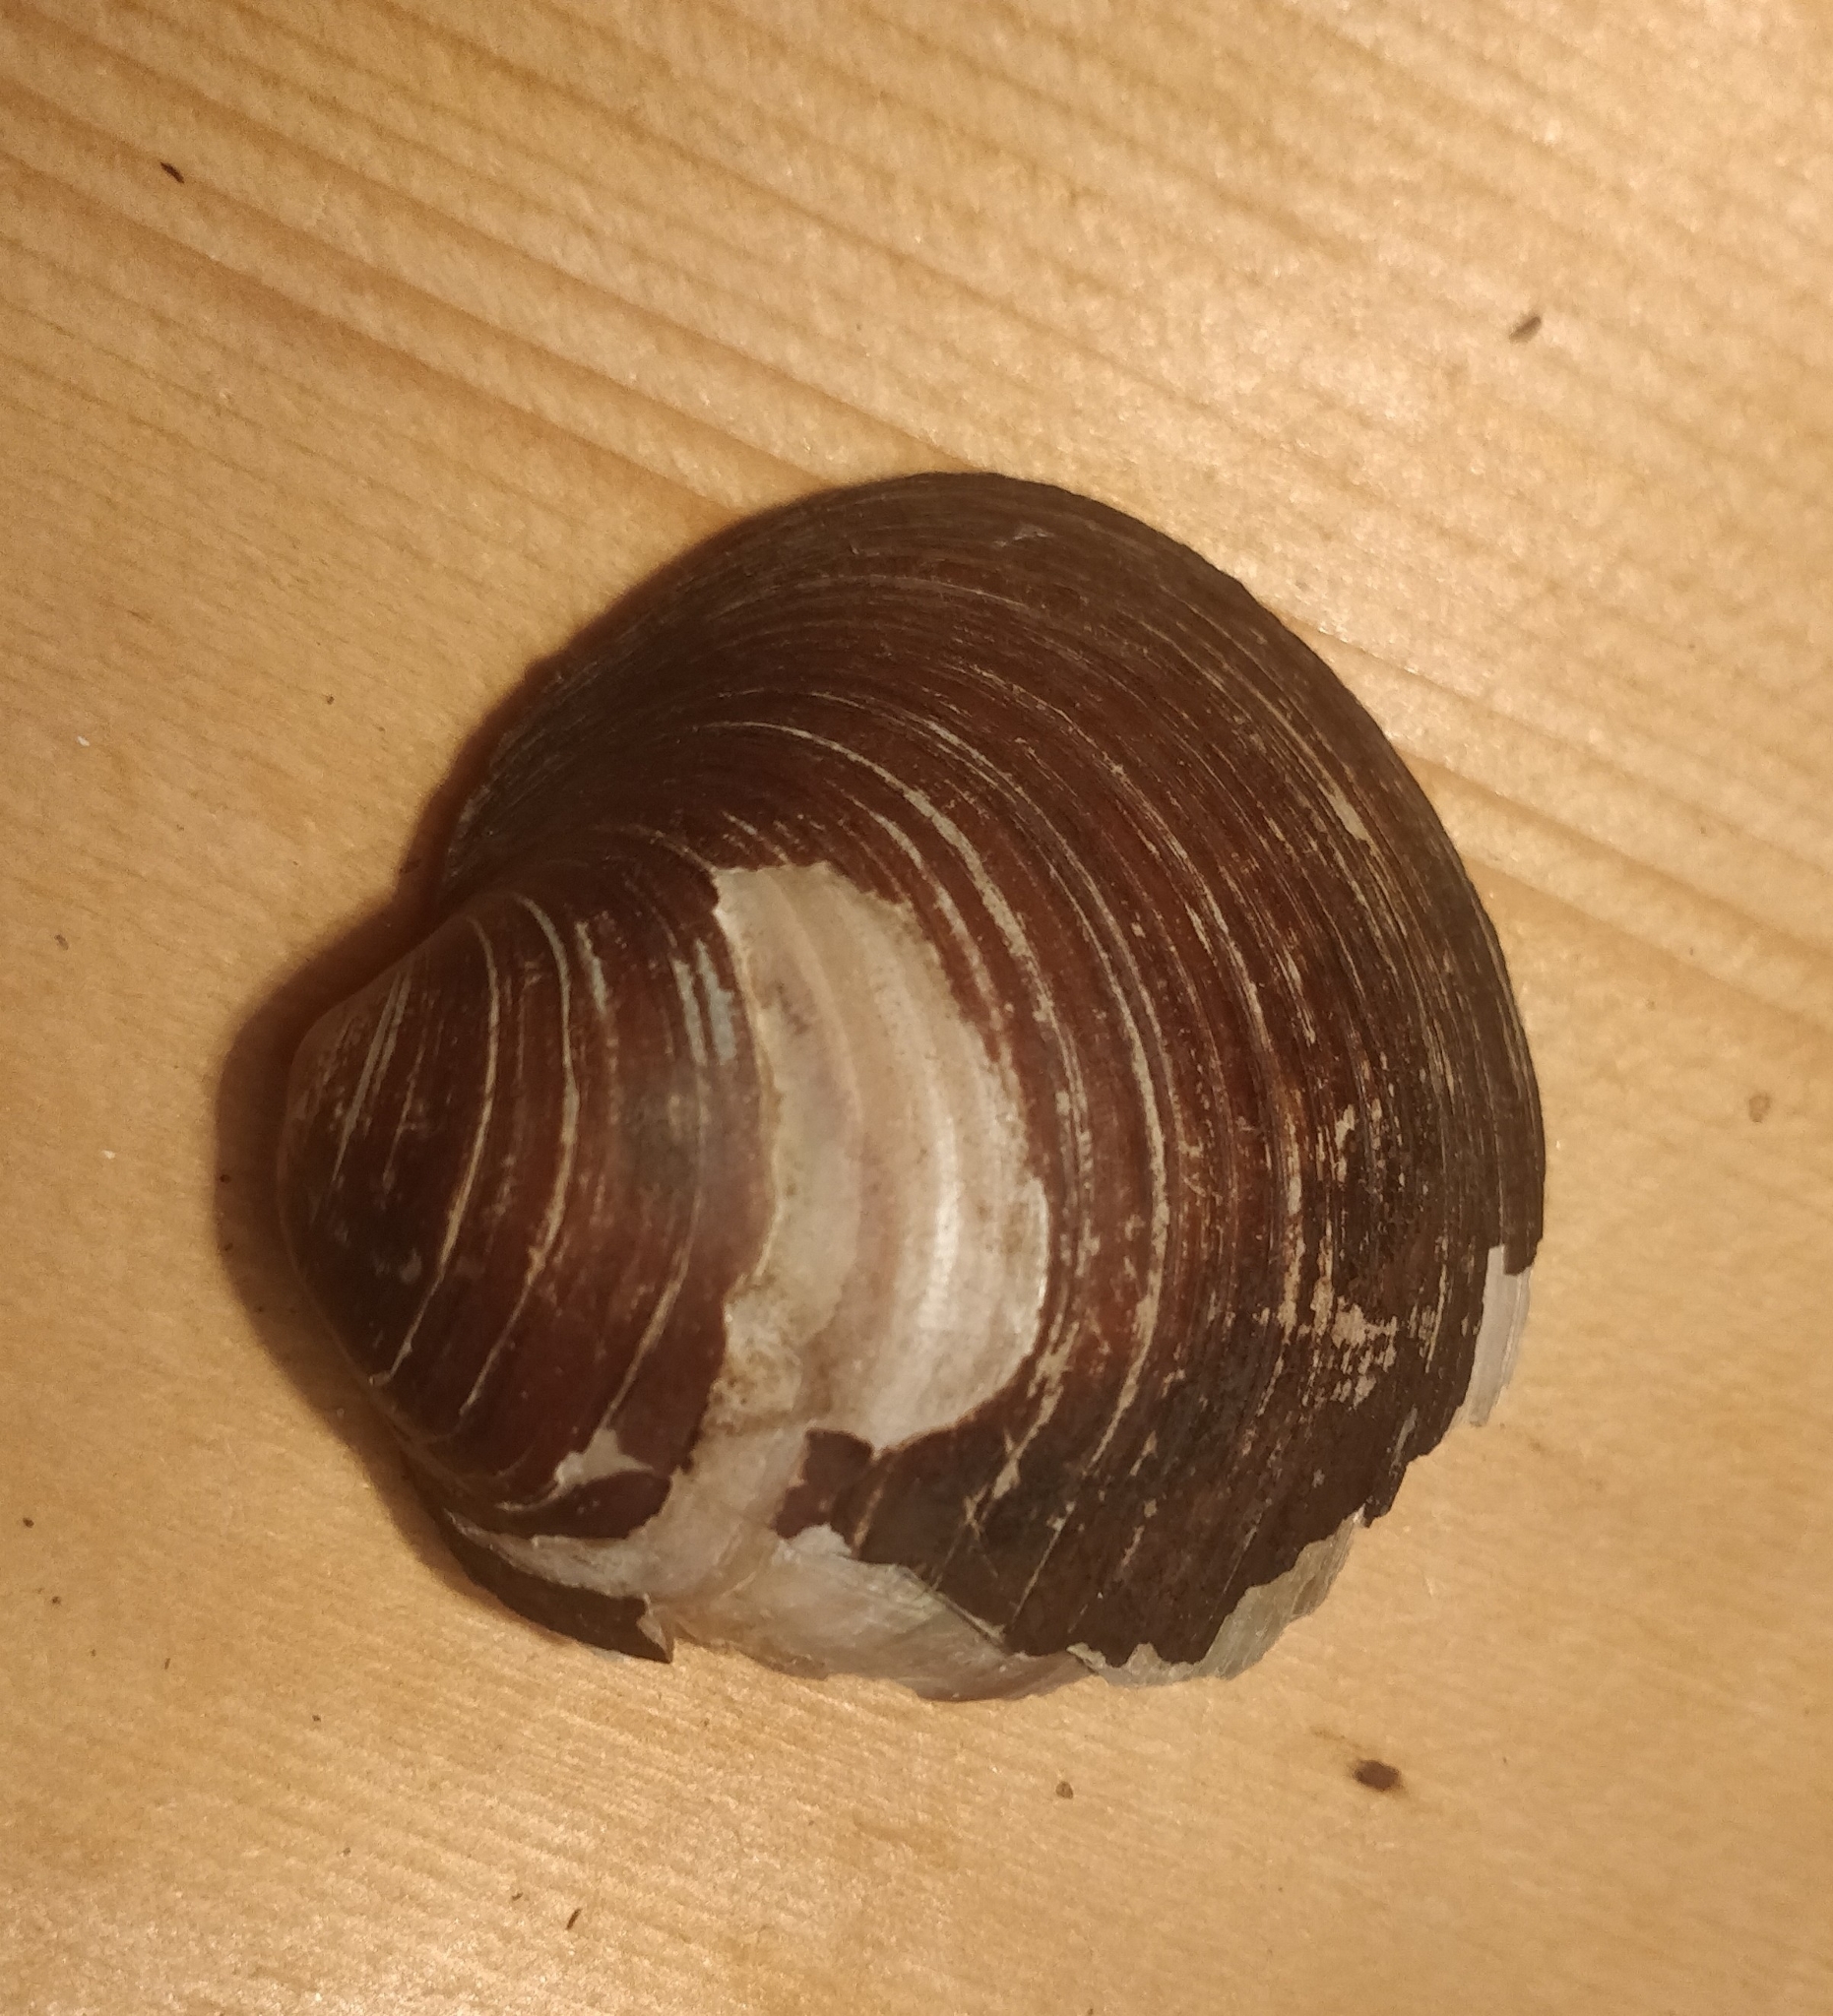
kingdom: Animalia
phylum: Mollusca
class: Bivalvia
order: Unionida
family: Unionidae
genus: Cyclonaias
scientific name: Cyclonaias pustulosa
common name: Pimpleback
